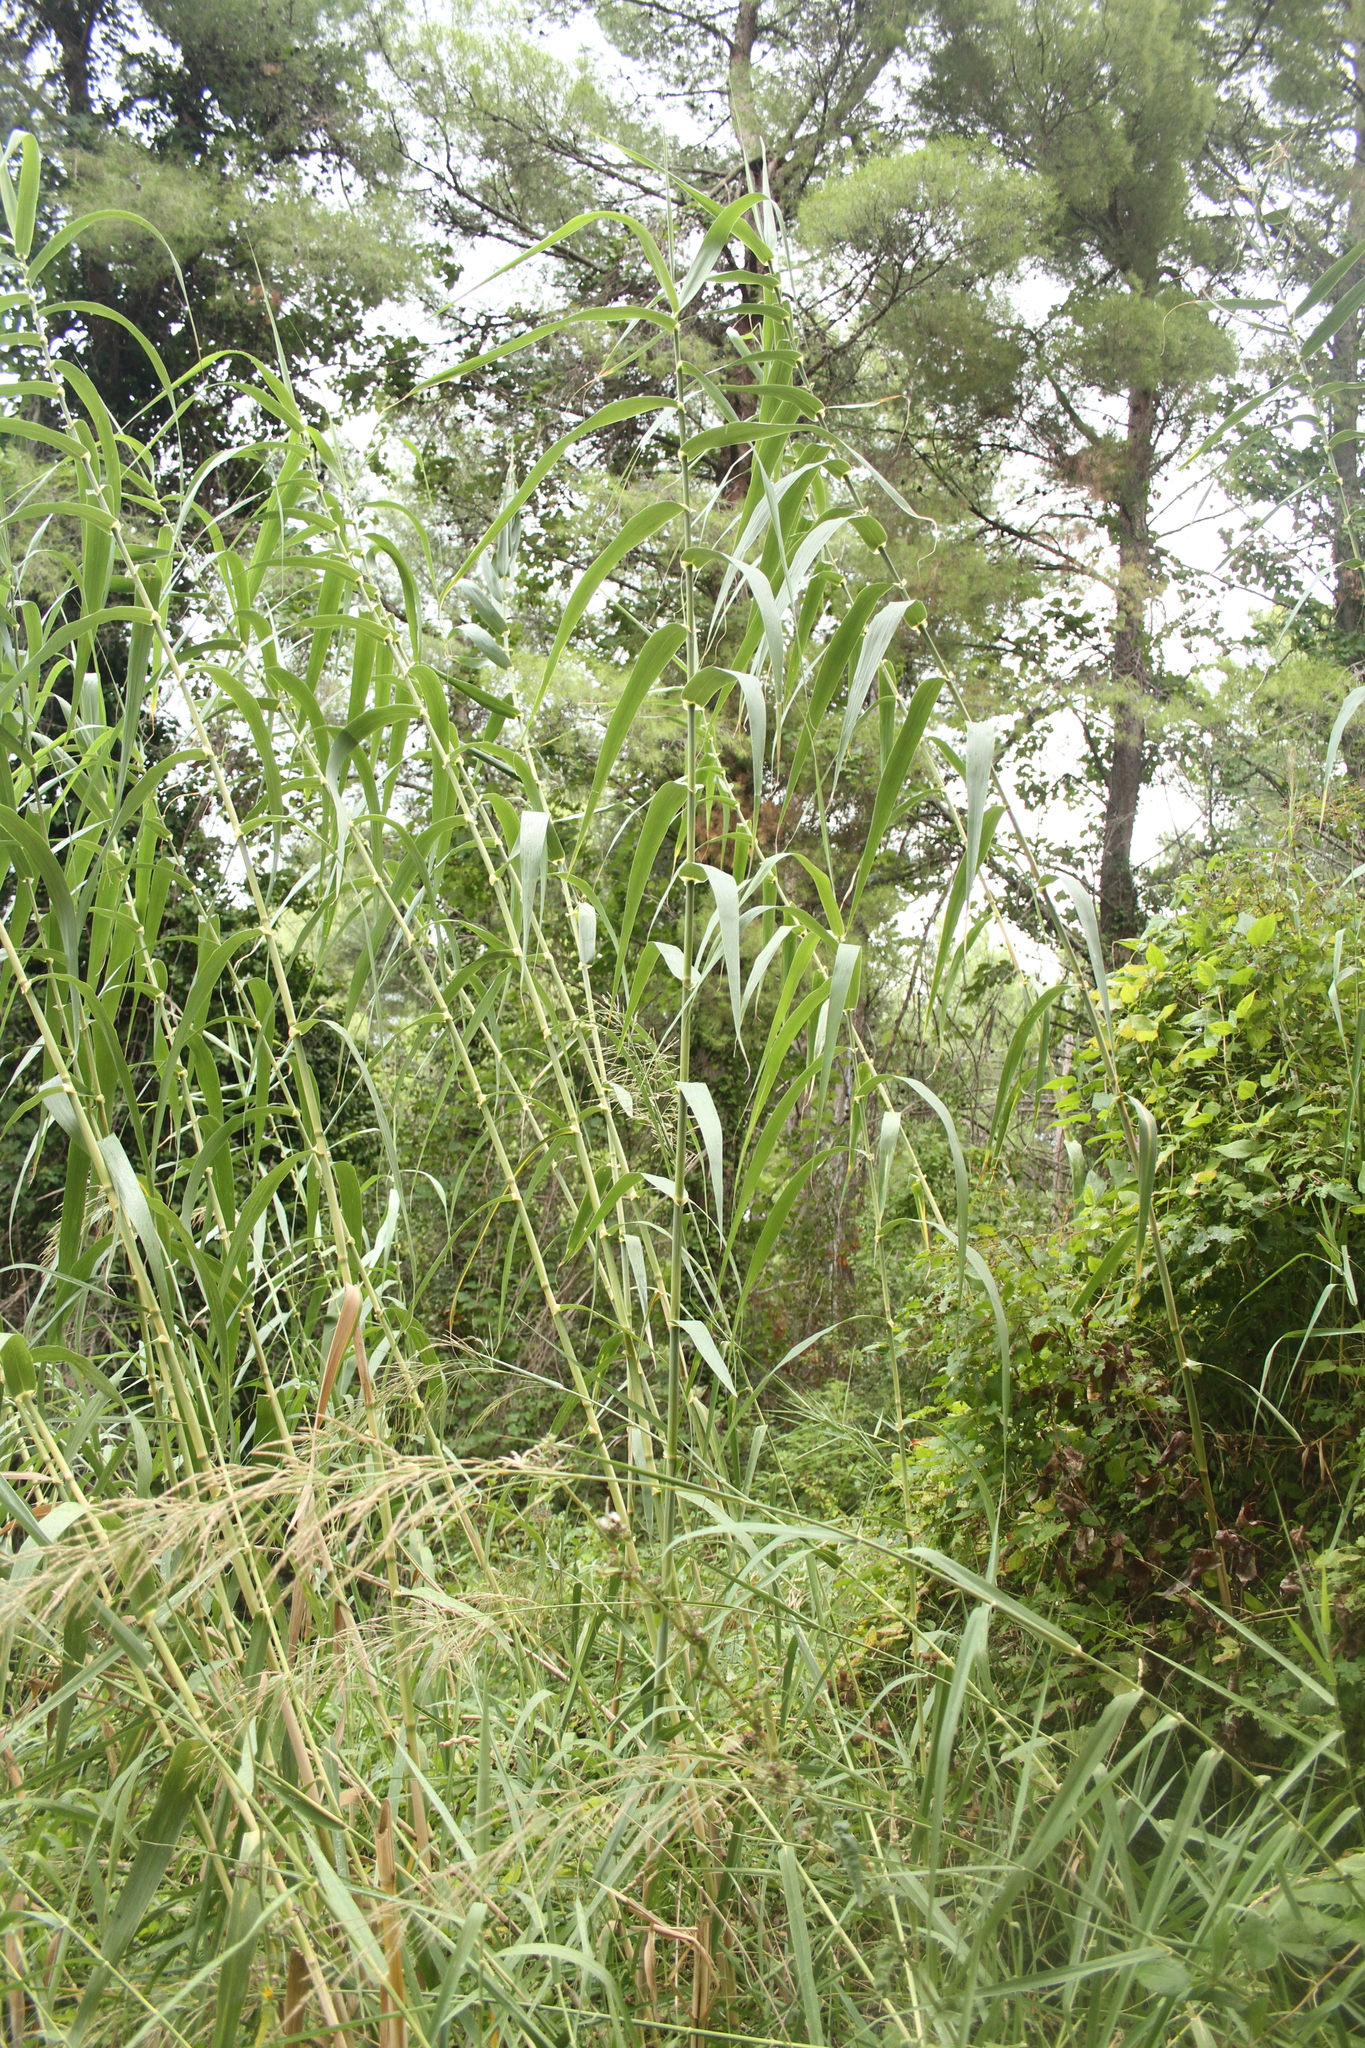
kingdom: Plantae
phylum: Tracheophyta
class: Liliopsida
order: Poales
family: Poaceae
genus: Arundo
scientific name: Arundo donax
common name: Giant reed
